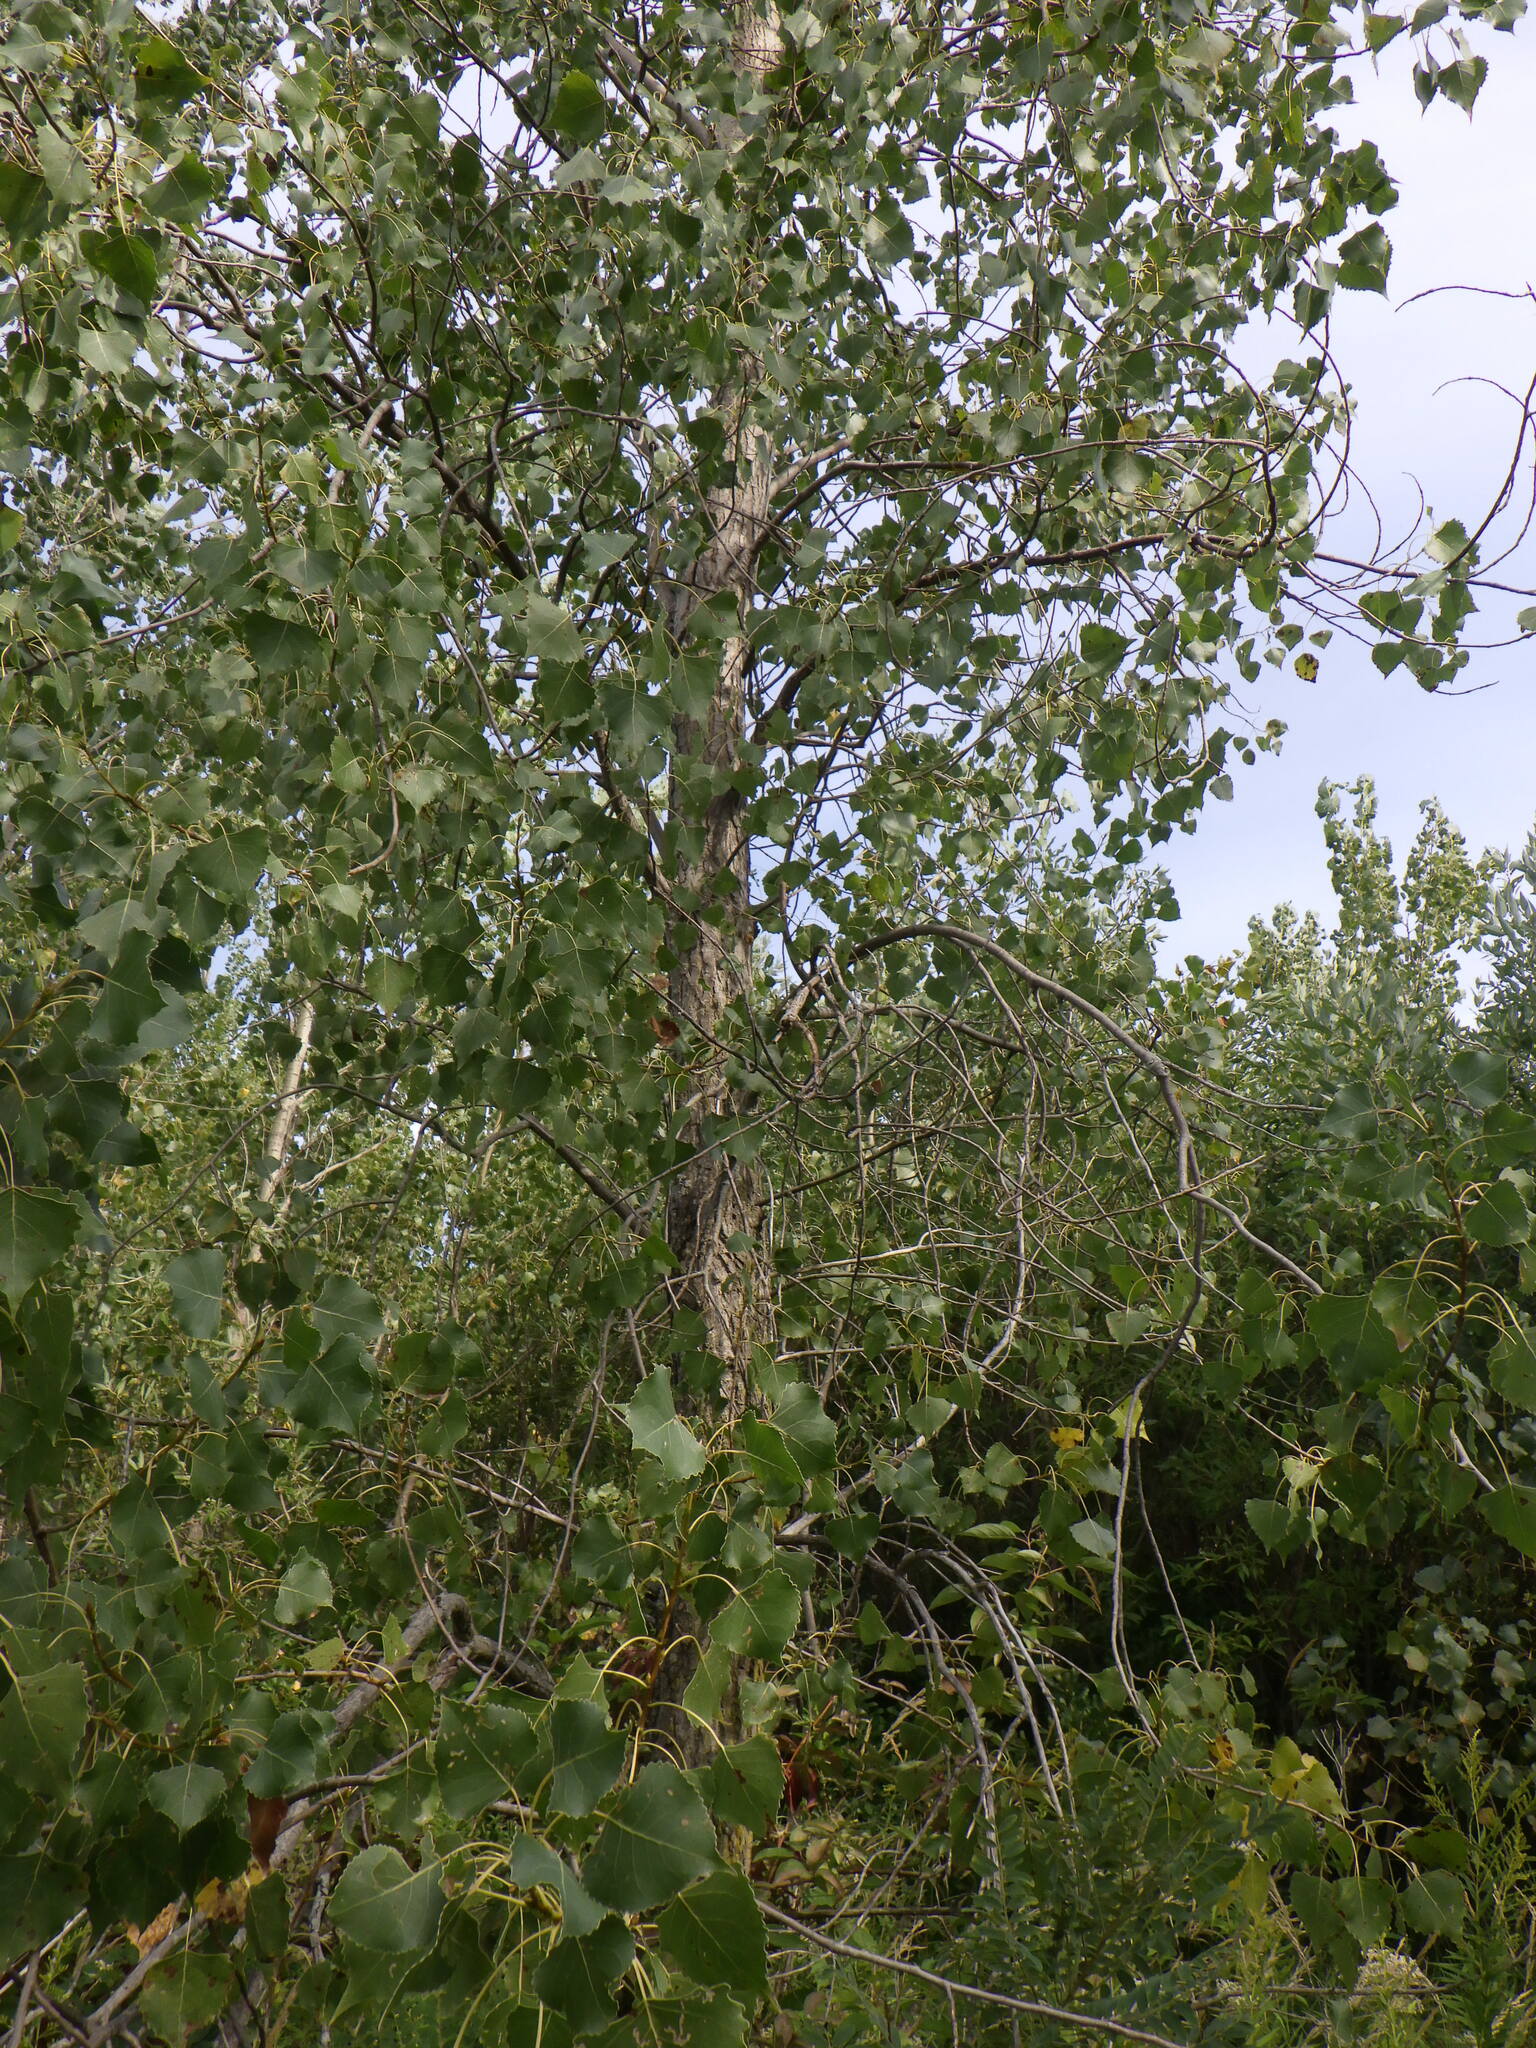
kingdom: Plantae
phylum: Tracheophyta
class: Magnoliopsida
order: Malpighiales
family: Salicaceae
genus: Populus
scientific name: Populus deltoides
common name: Eastern cottonwood
